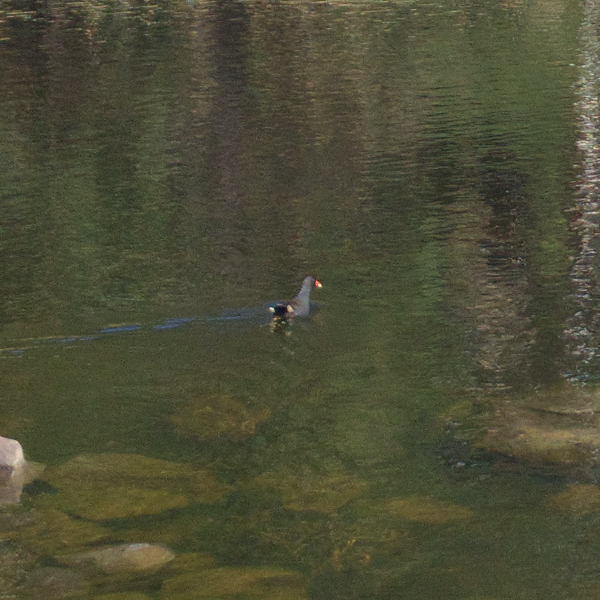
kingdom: Animalia
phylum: Chordata
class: Aves
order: Gruiformes
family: Rallidae
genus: Gallinula
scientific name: Gallinula tenebrosa
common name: Dusky moorhen
